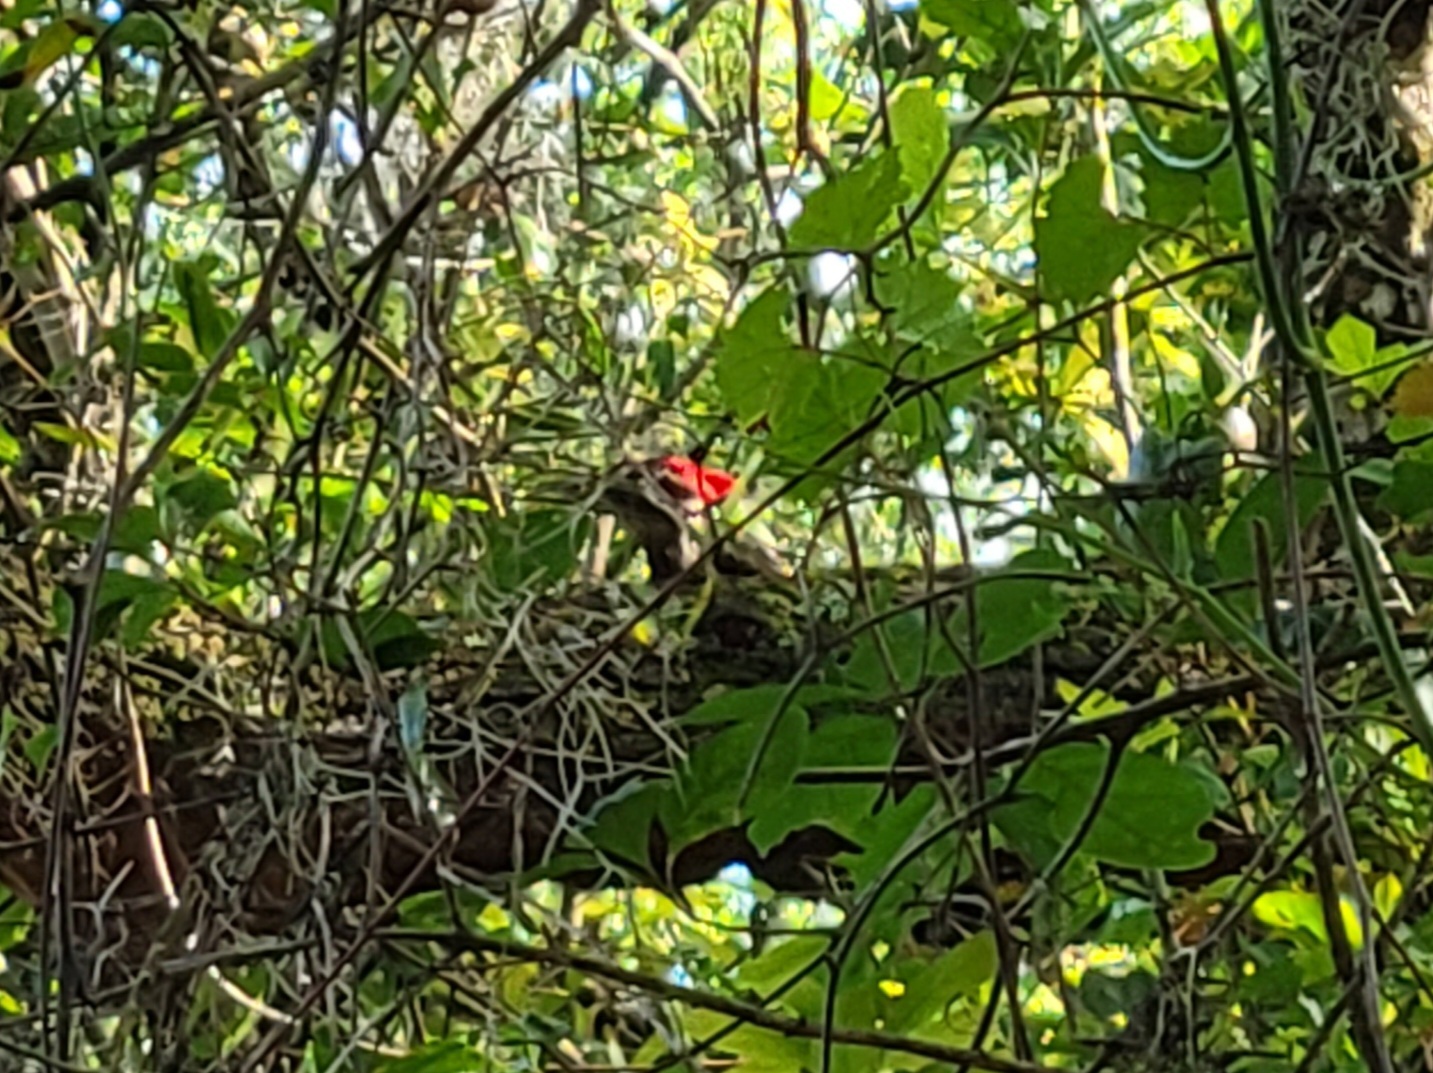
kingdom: Animalia
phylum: Chordata
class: Aves
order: Piciformes
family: Picidae
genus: Dryocopus
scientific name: Dryocopus pileatus
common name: Pileated woodpecker
